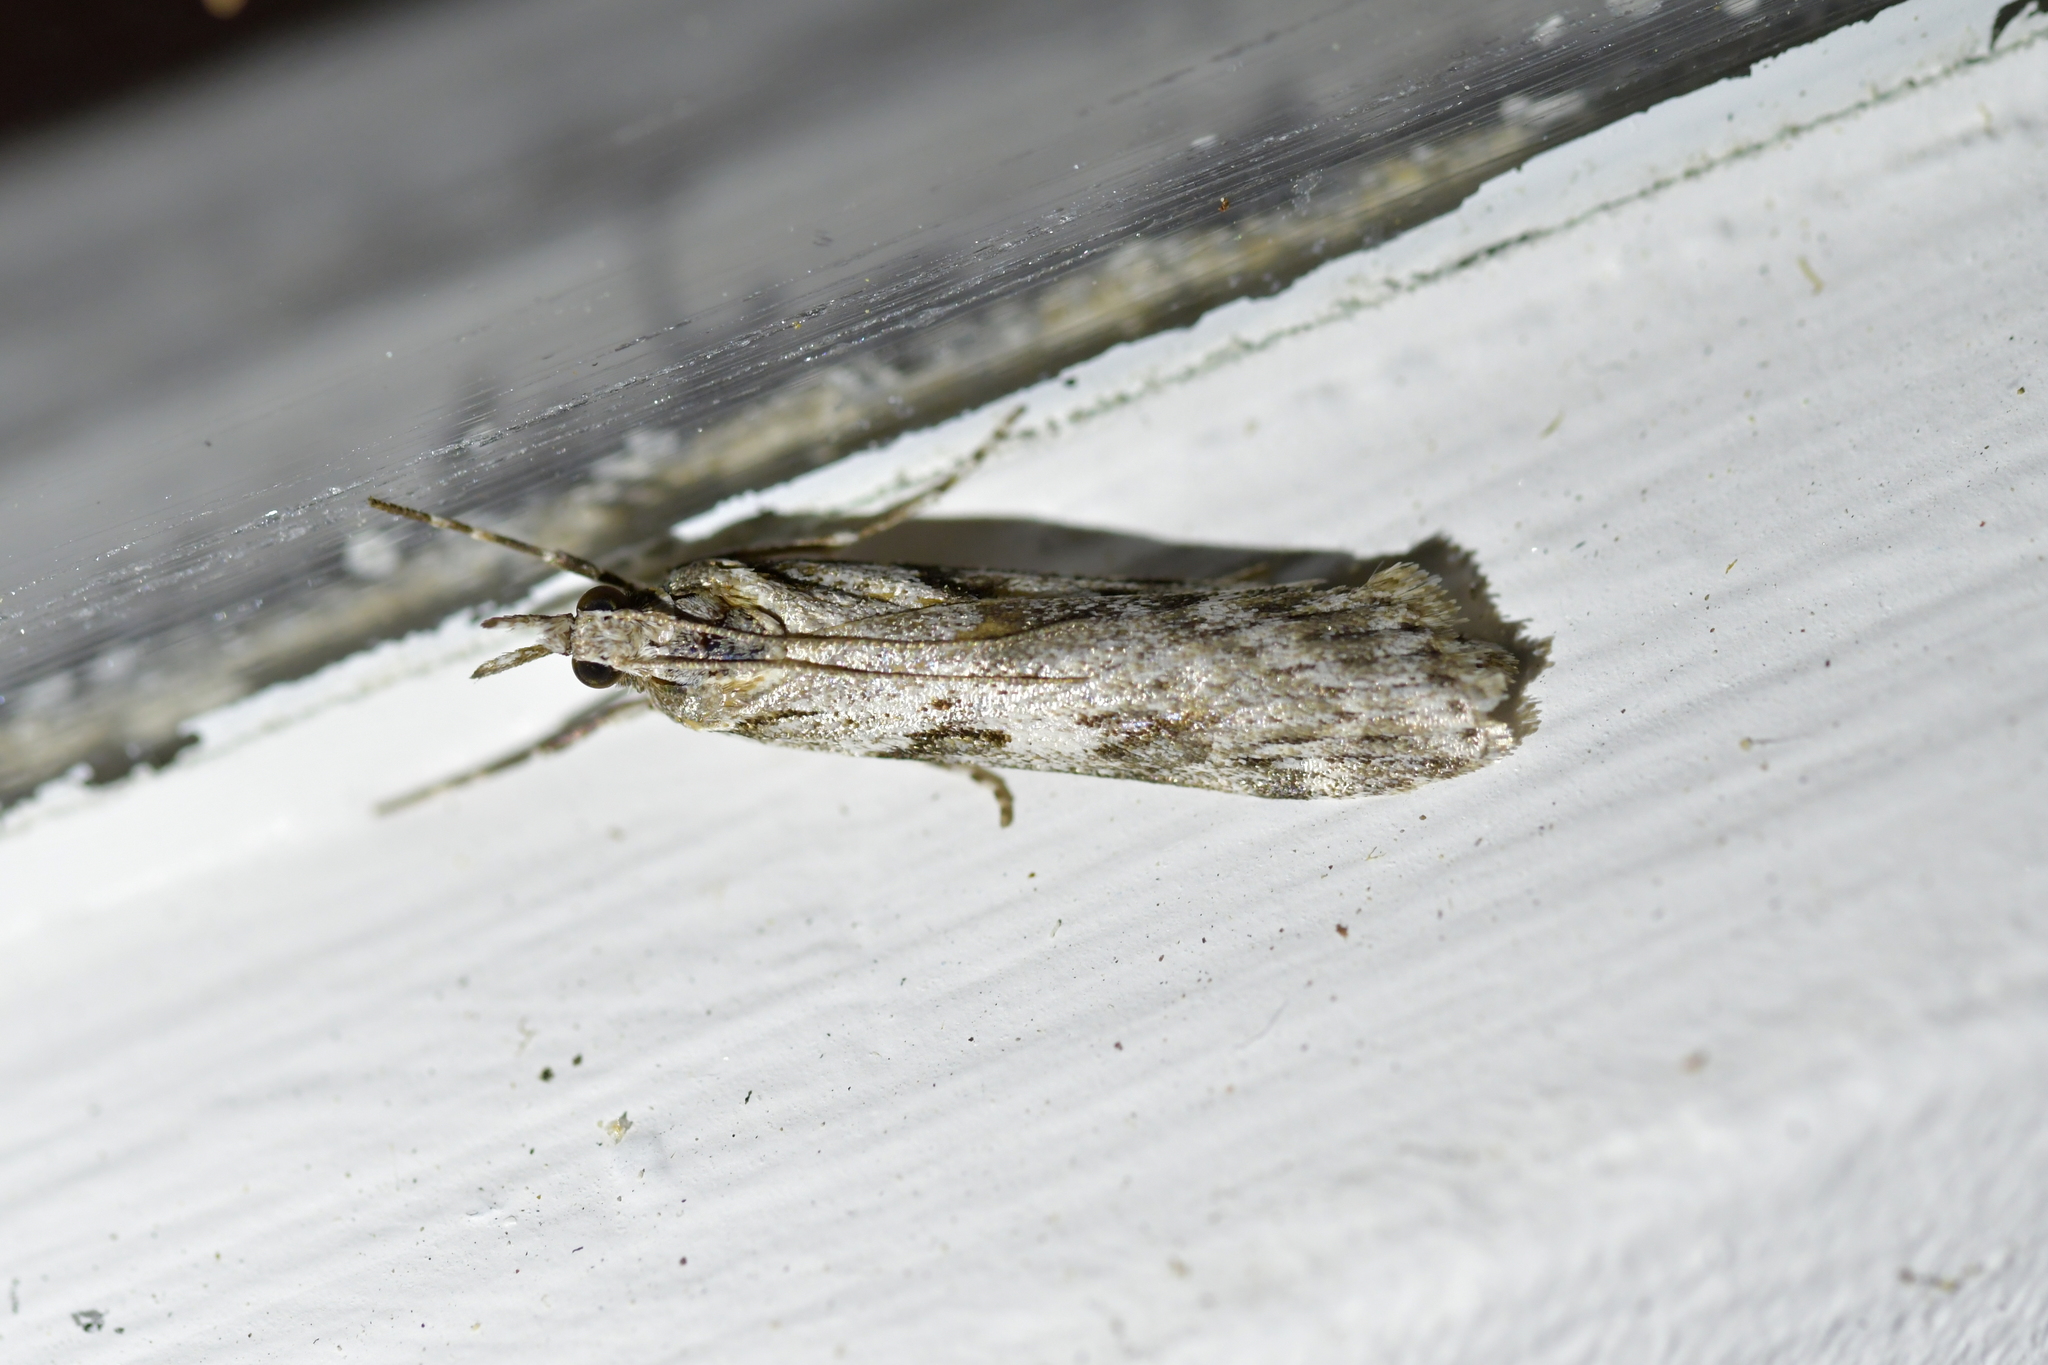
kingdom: Animalia
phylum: Arthropoda
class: Insecta
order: Lepidoptera
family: Crambidae
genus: Scoparia
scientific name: Scoparia halopis
